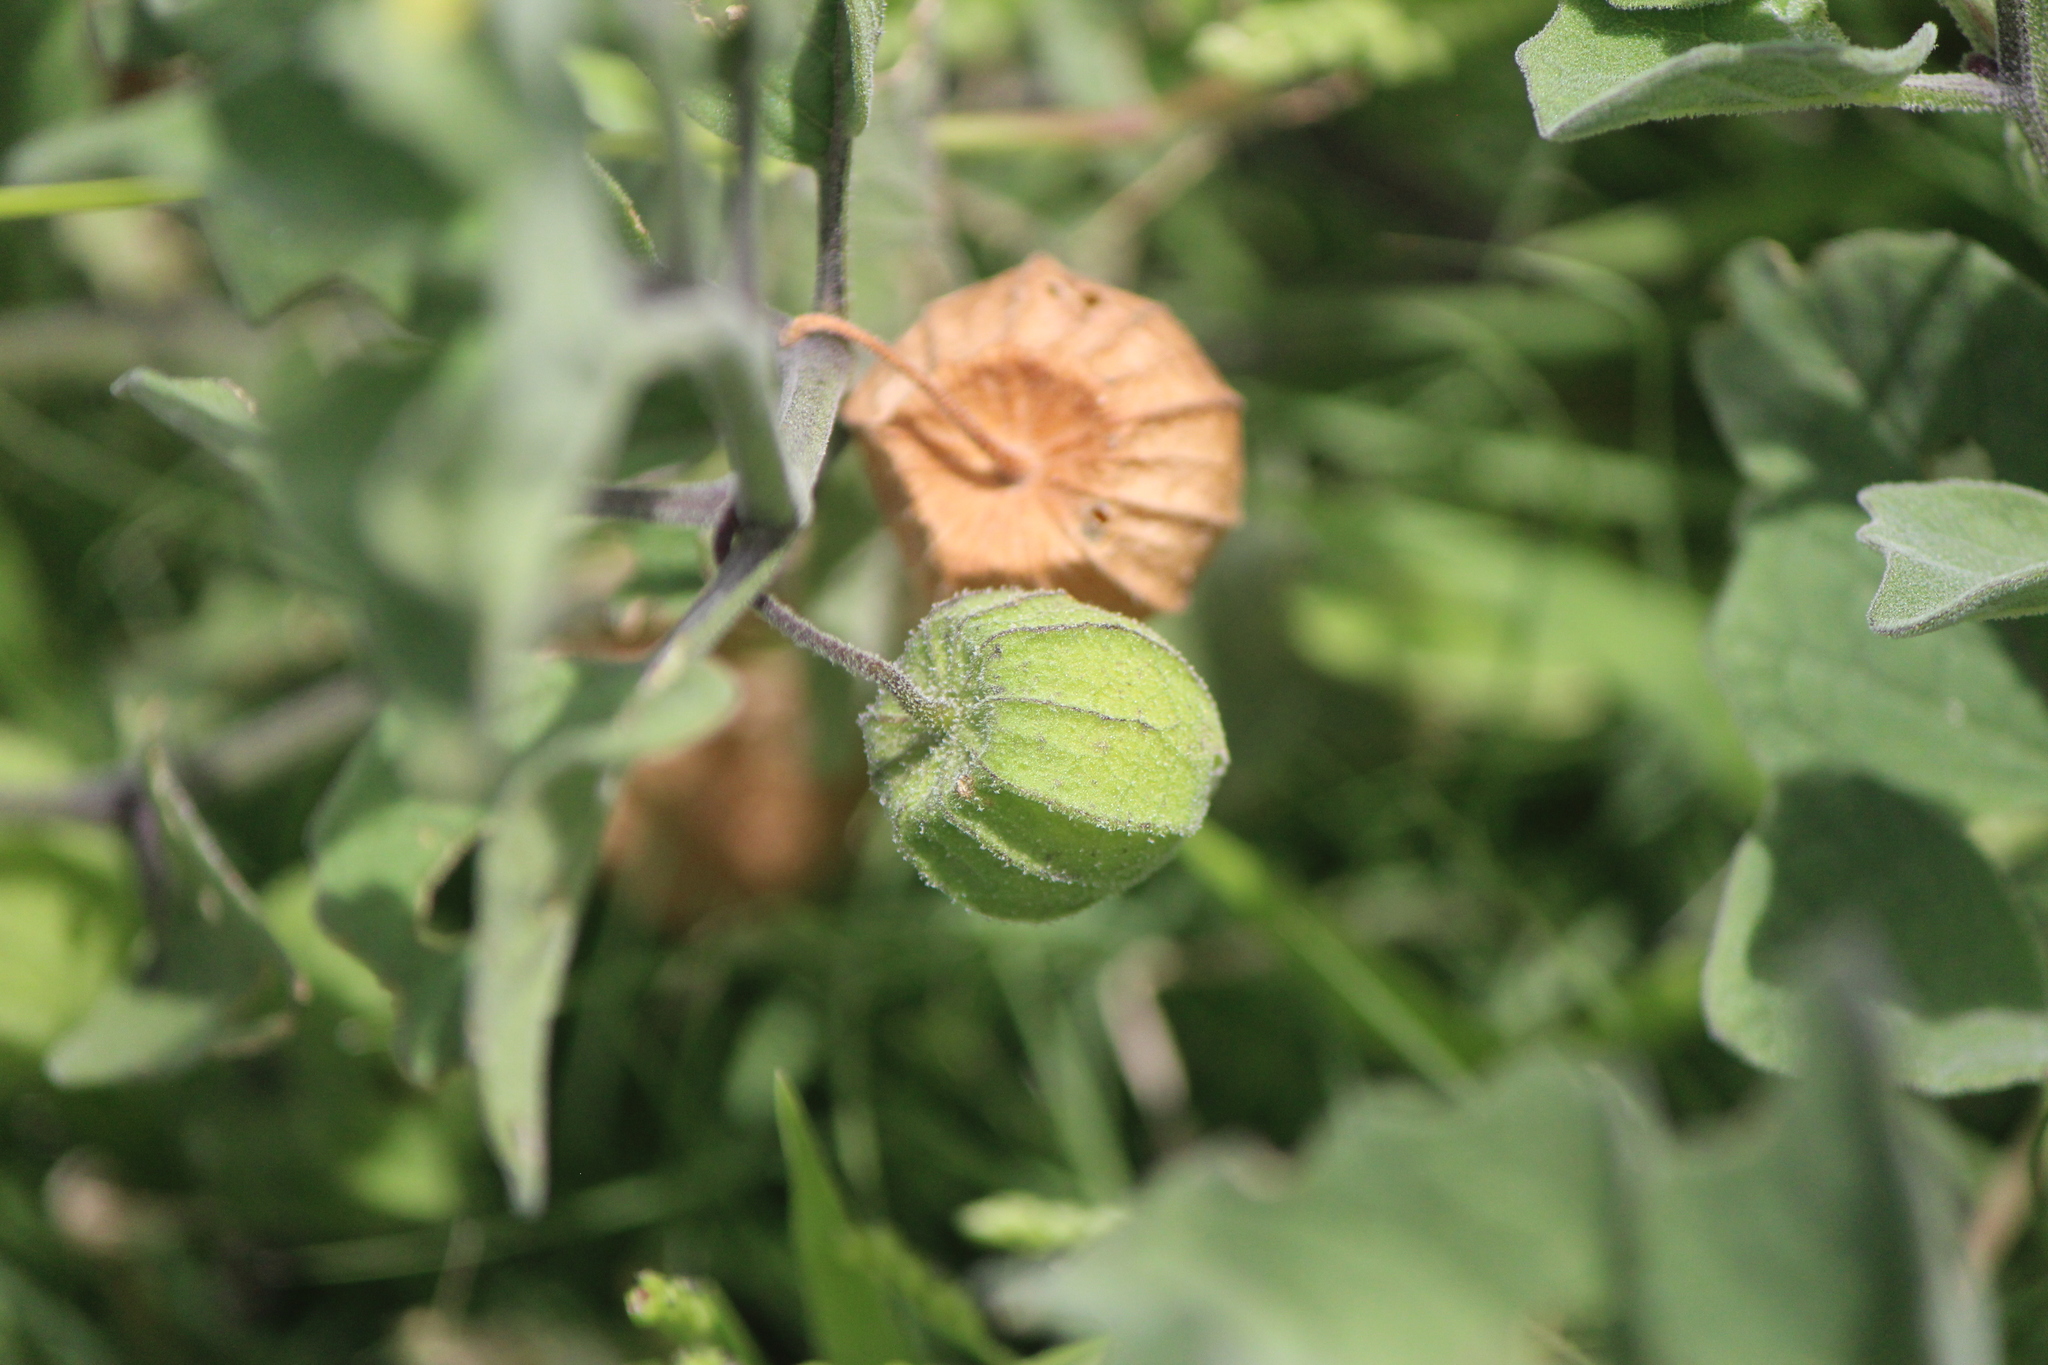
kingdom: Plantae
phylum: Tracheophyta
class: Magnoliopsida
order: Solanales
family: Solanaceae
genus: Physalis
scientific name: Physalis cinerascens
